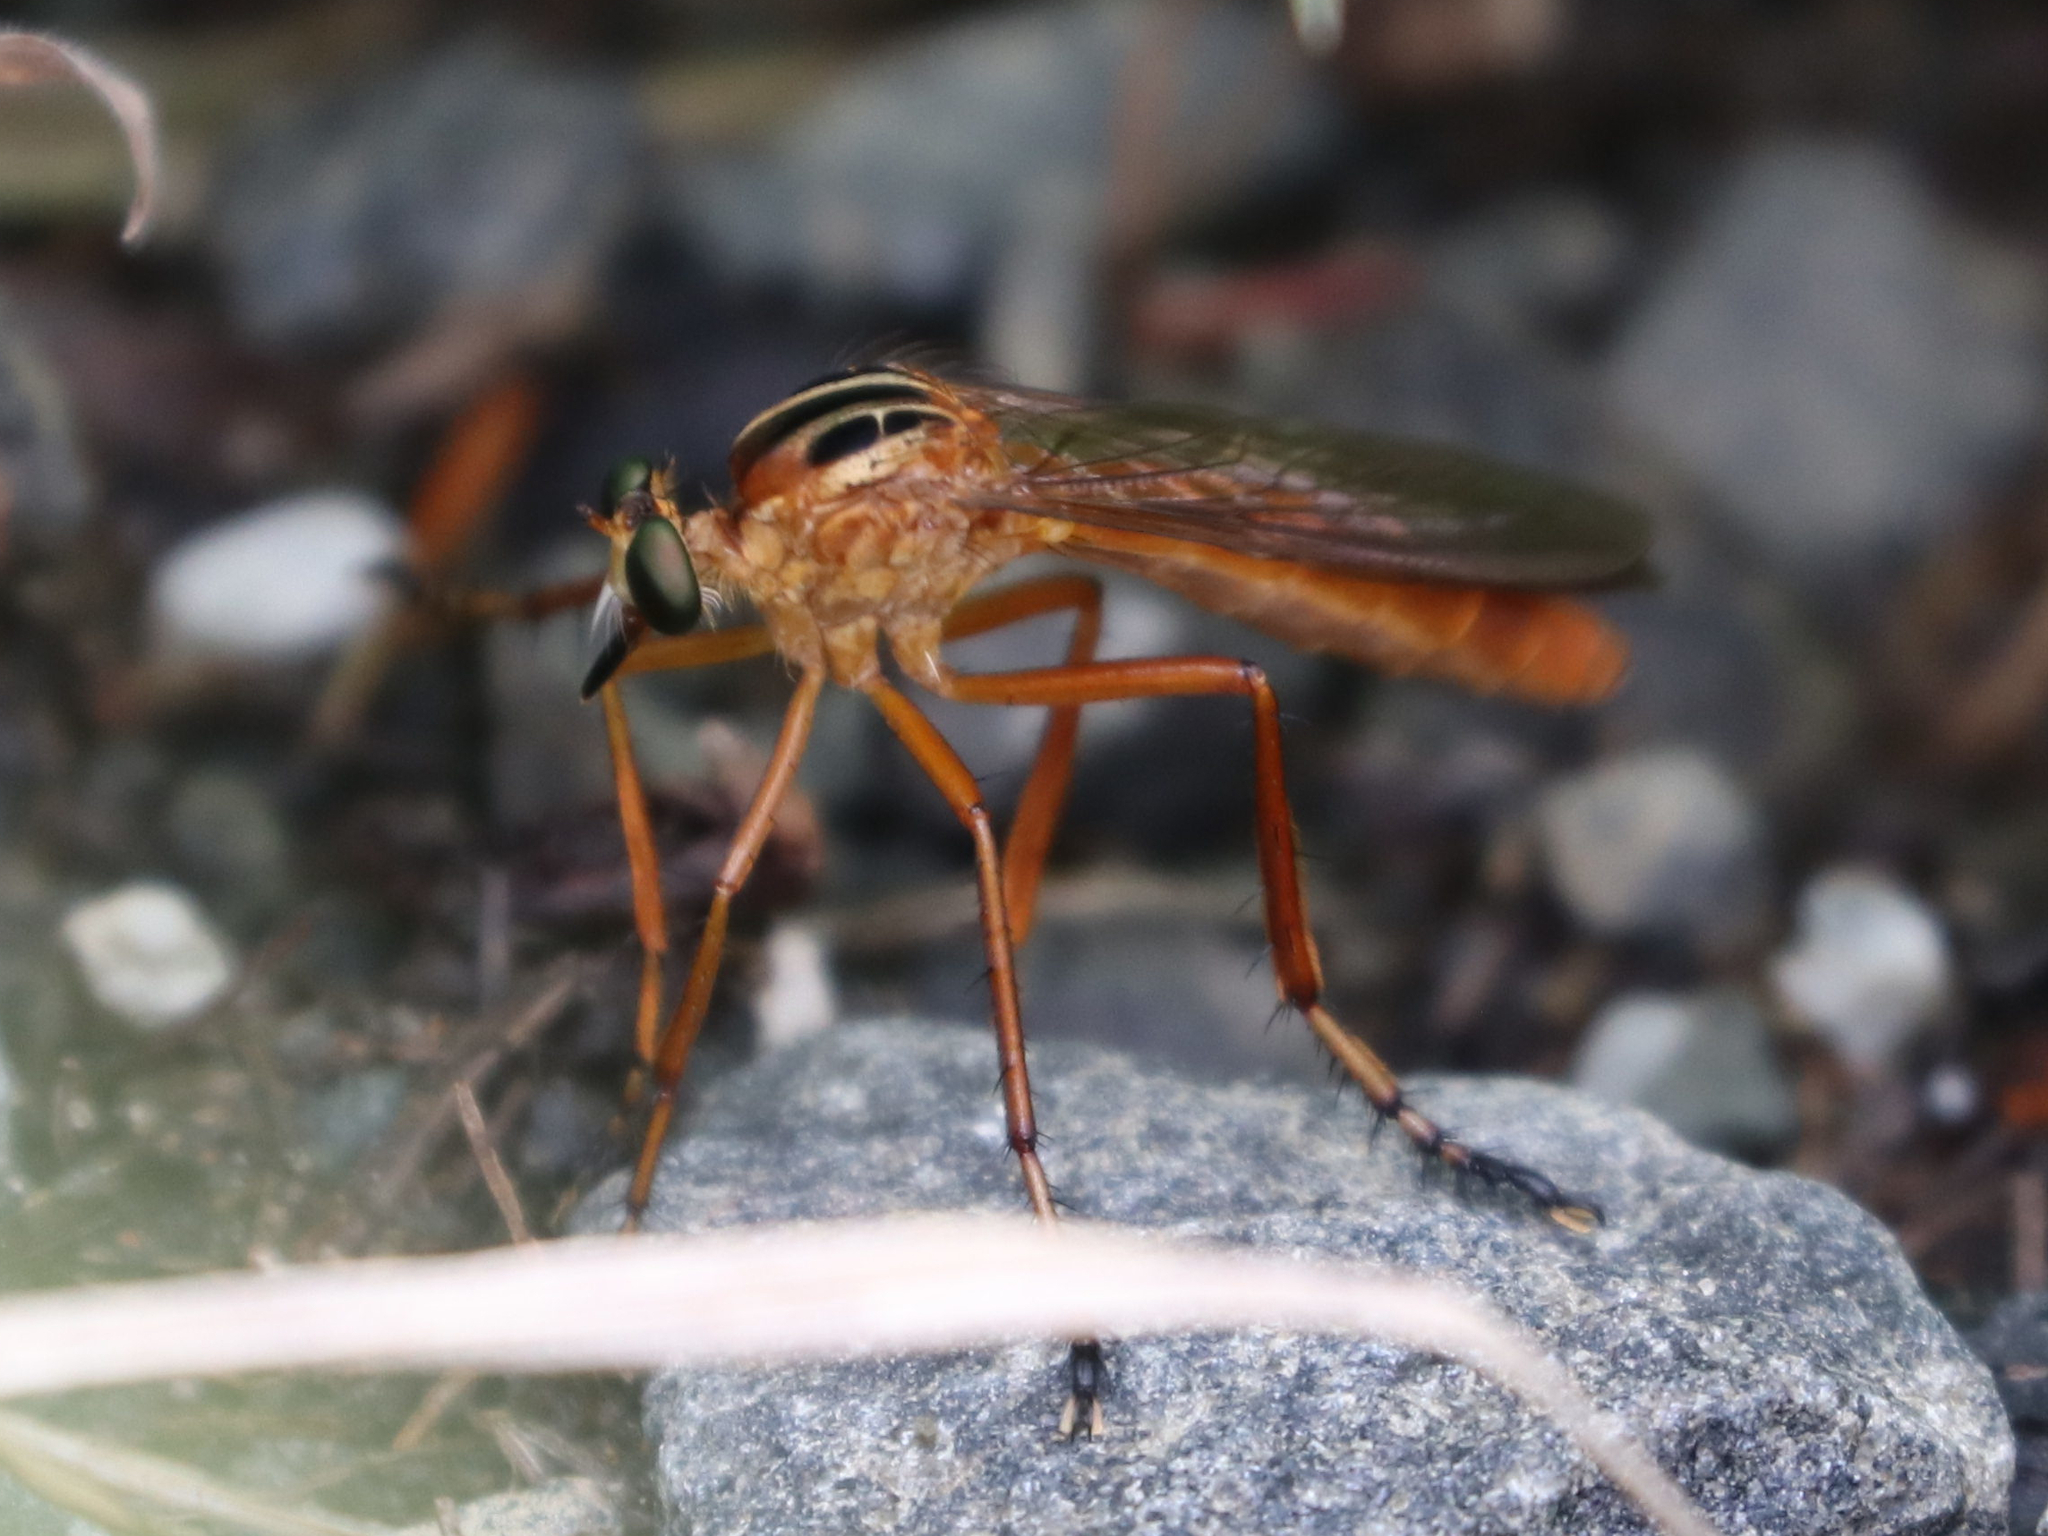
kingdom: Animalia
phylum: Arthropoda
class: Insecta
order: Diptera
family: Asilidae
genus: Diogmites
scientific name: Diogmites neoternatus
